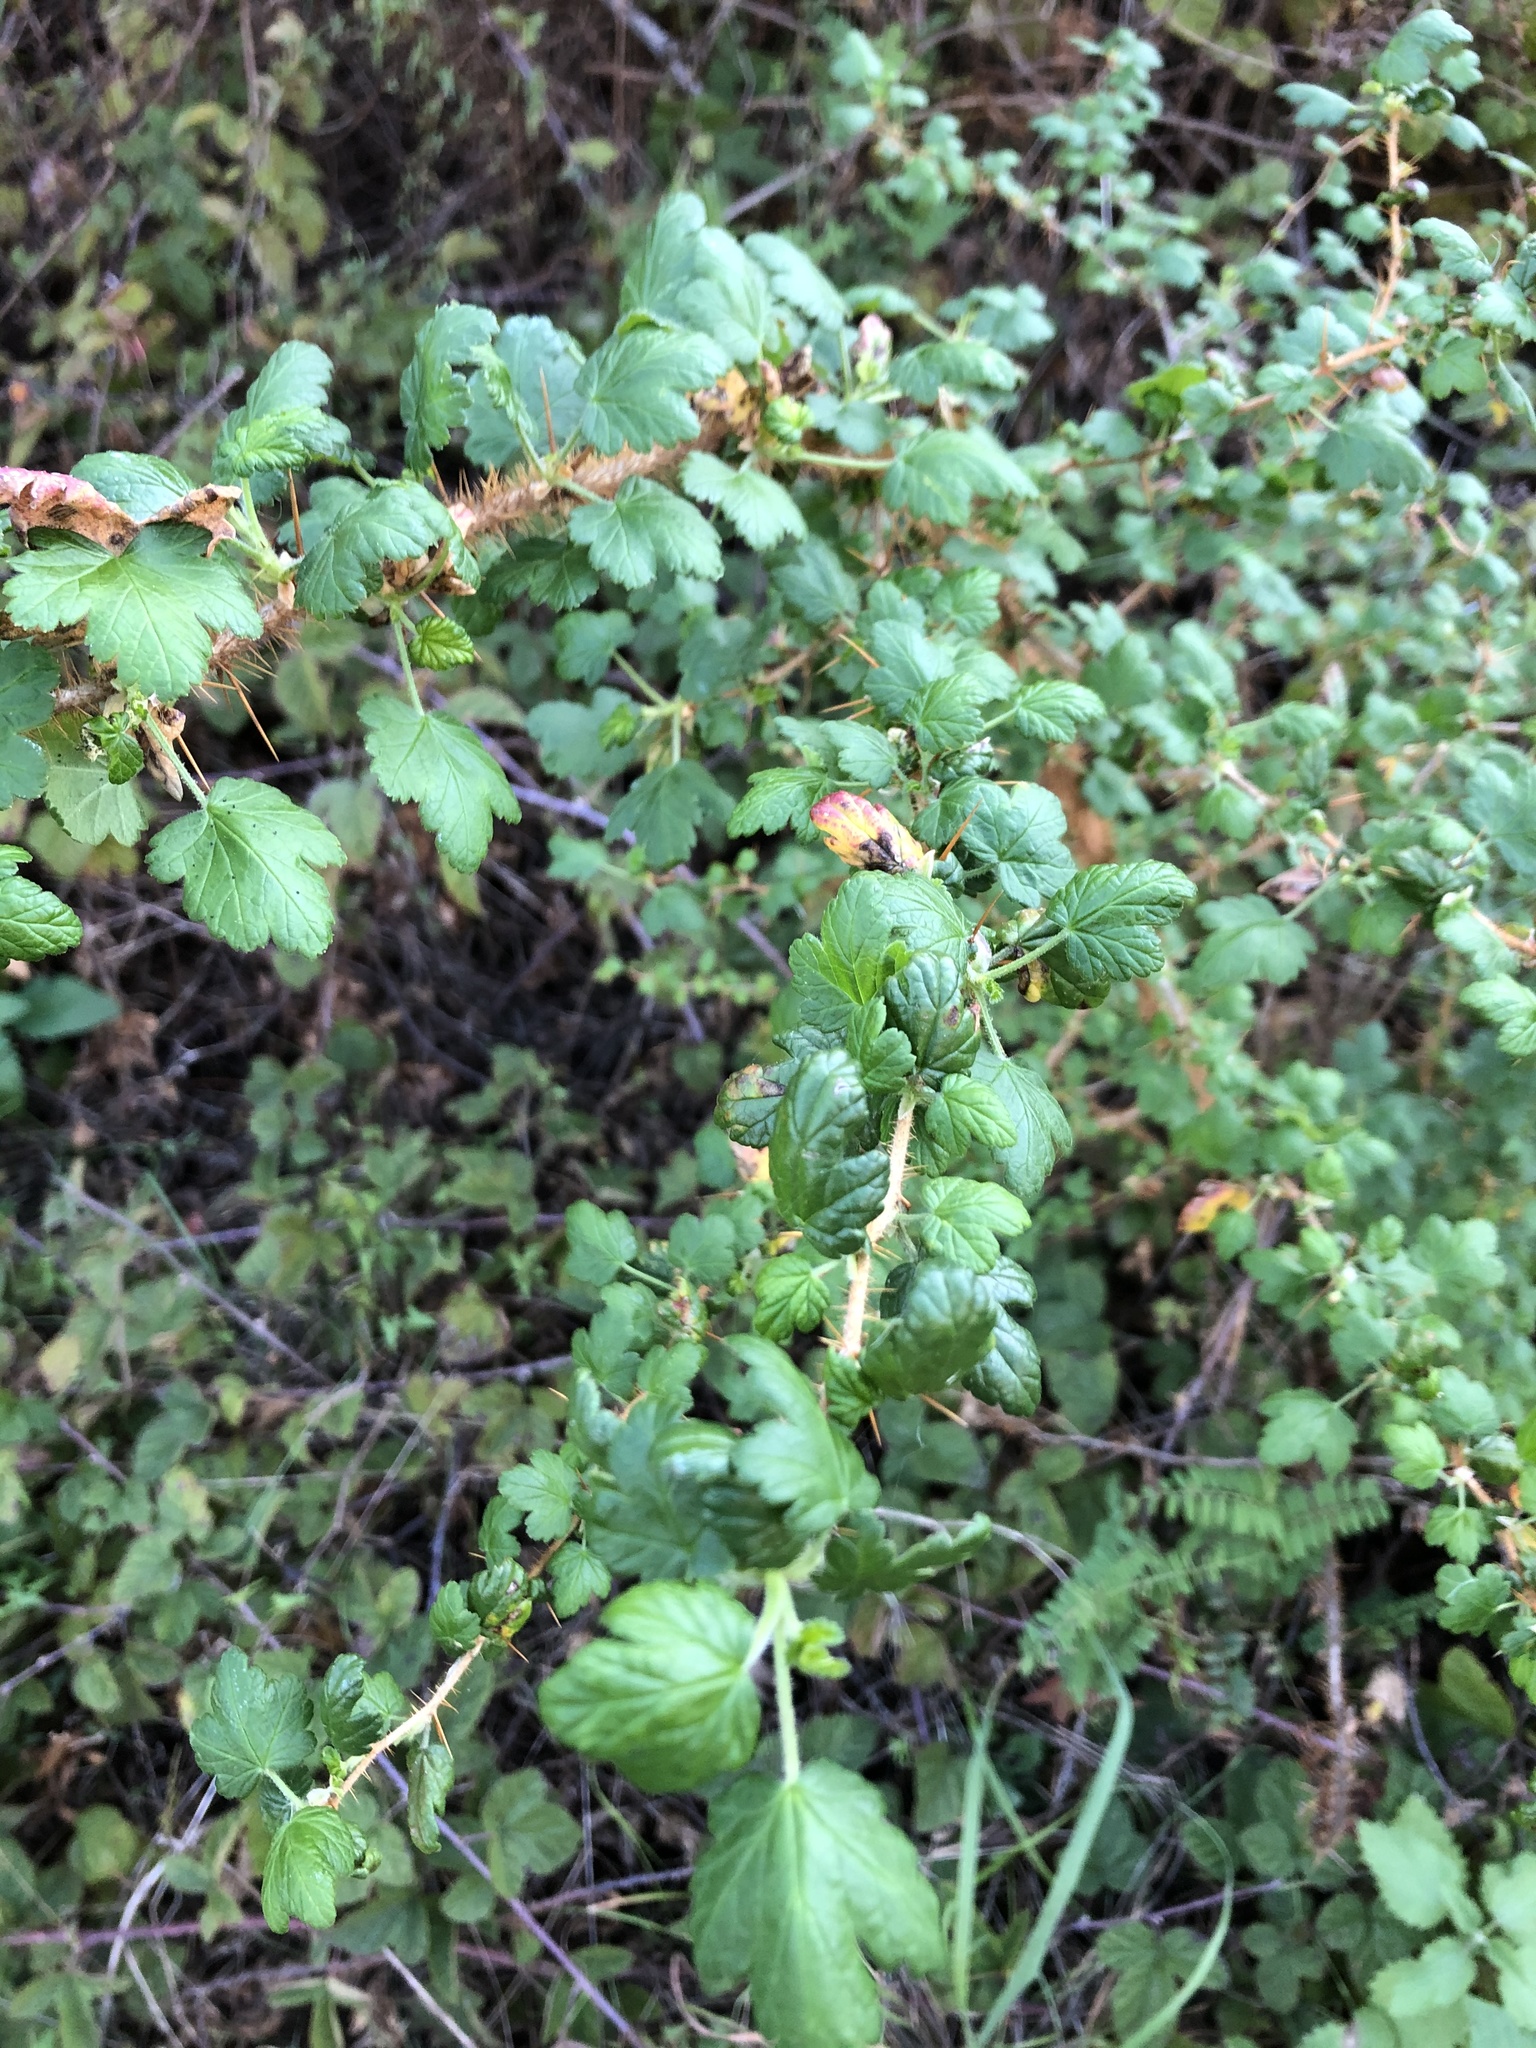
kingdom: Plantae
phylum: Tracheophyta
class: Magnoliopsida
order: Saxifragales
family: Grossulariaceae
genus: Ribes
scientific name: Ribes menziesii
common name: Canyon gooseberry
